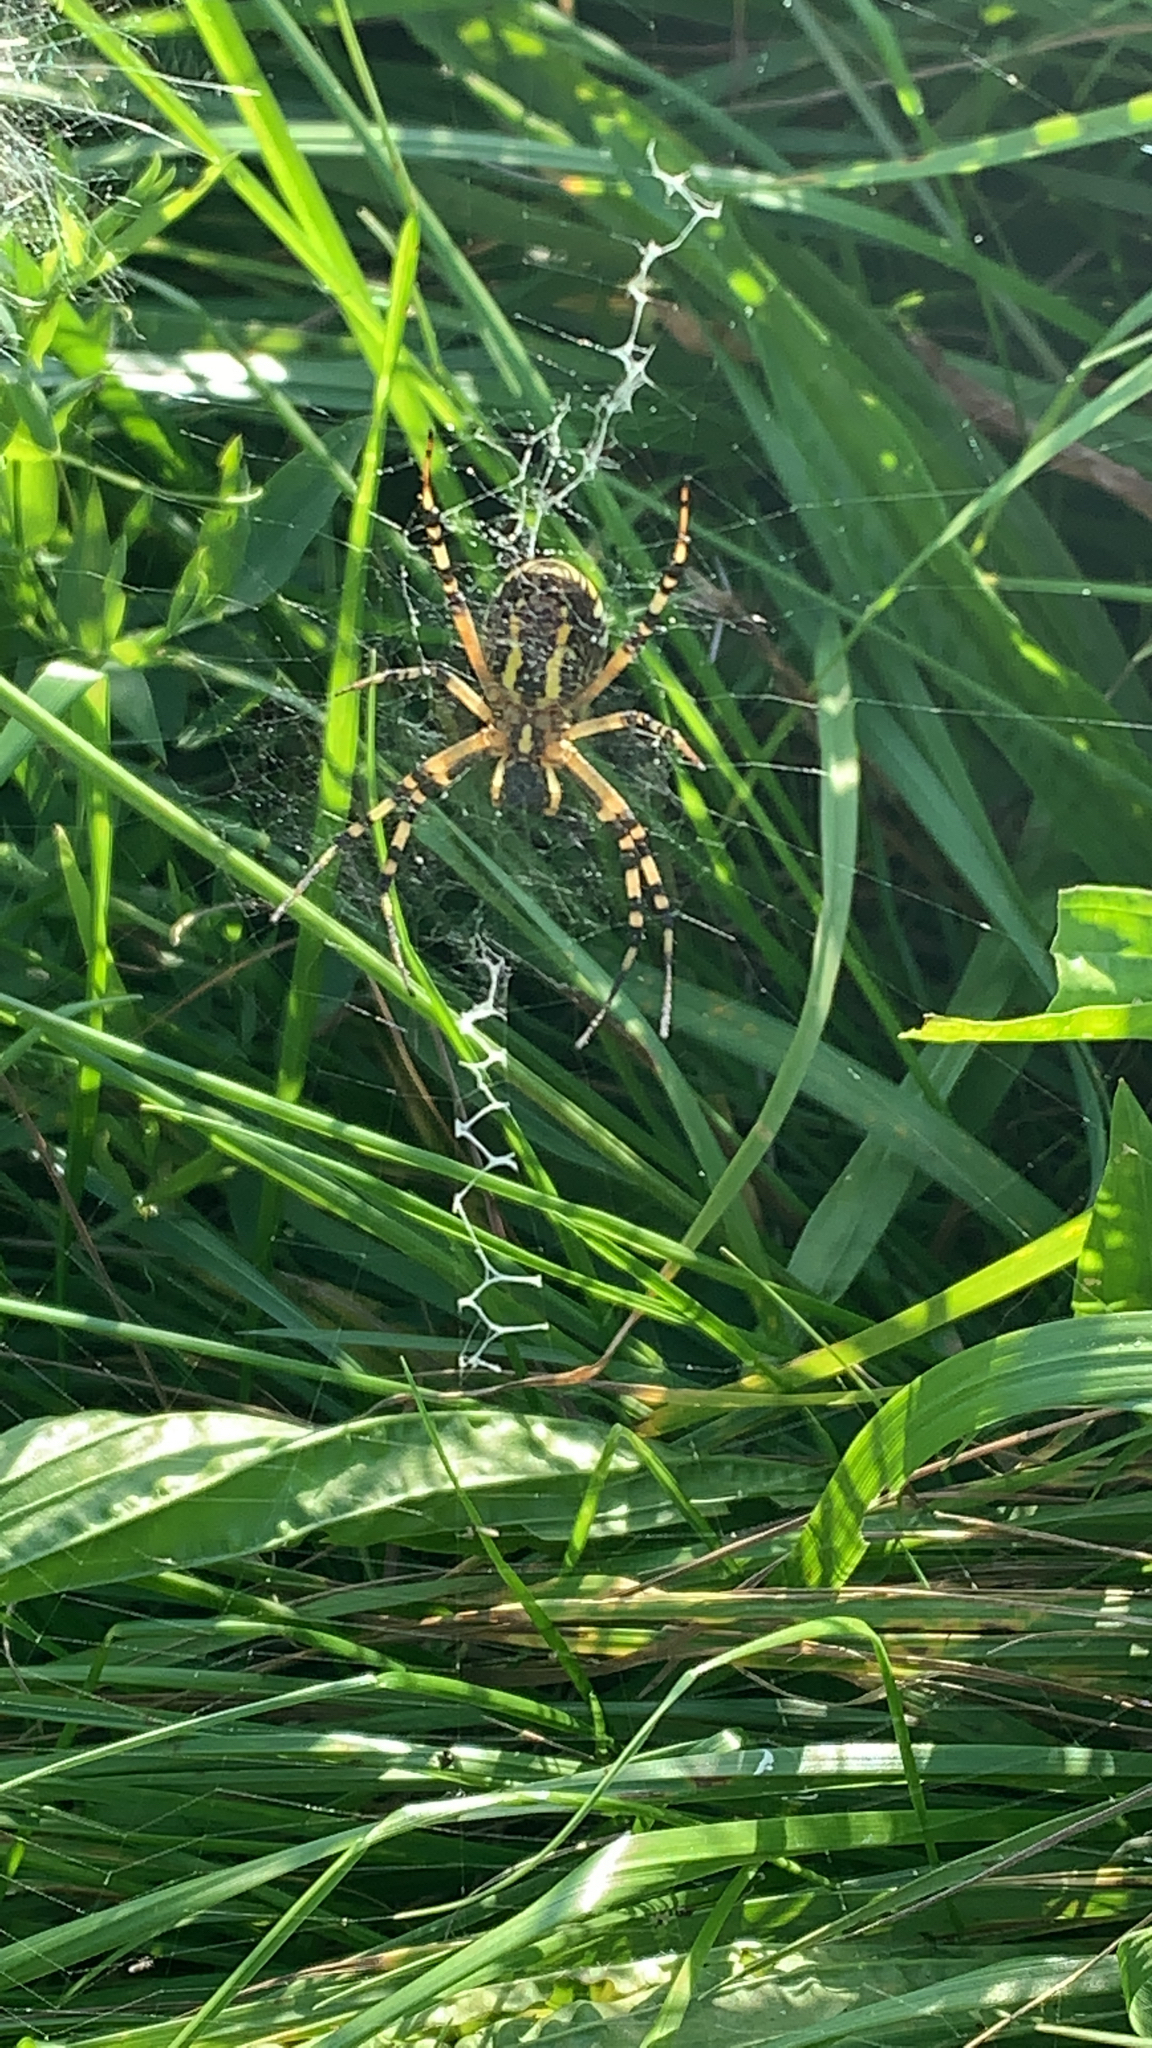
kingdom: Animalia
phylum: Arthropoda
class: Arachnida
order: Araneae
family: Araneidae
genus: Argiope
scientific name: Argiope bruennichi
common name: Wasp spider
